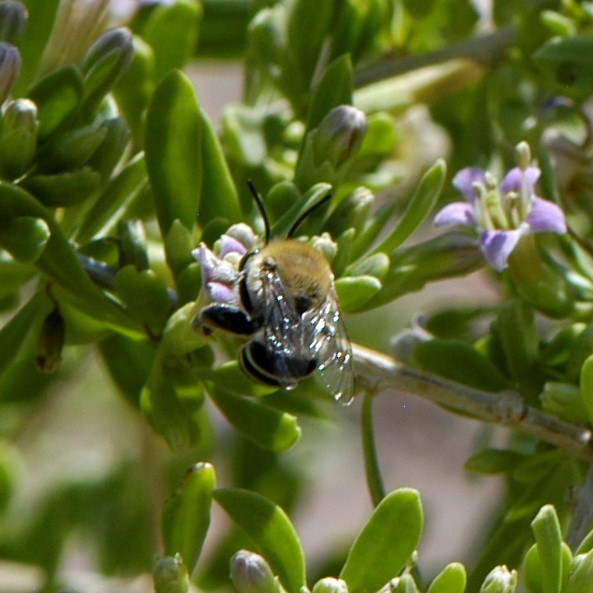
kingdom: Animalia
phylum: Arthropoda
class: Insecta
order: Hymenoptera
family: Apidae
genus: Anthophora
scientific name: Anthophora californica
